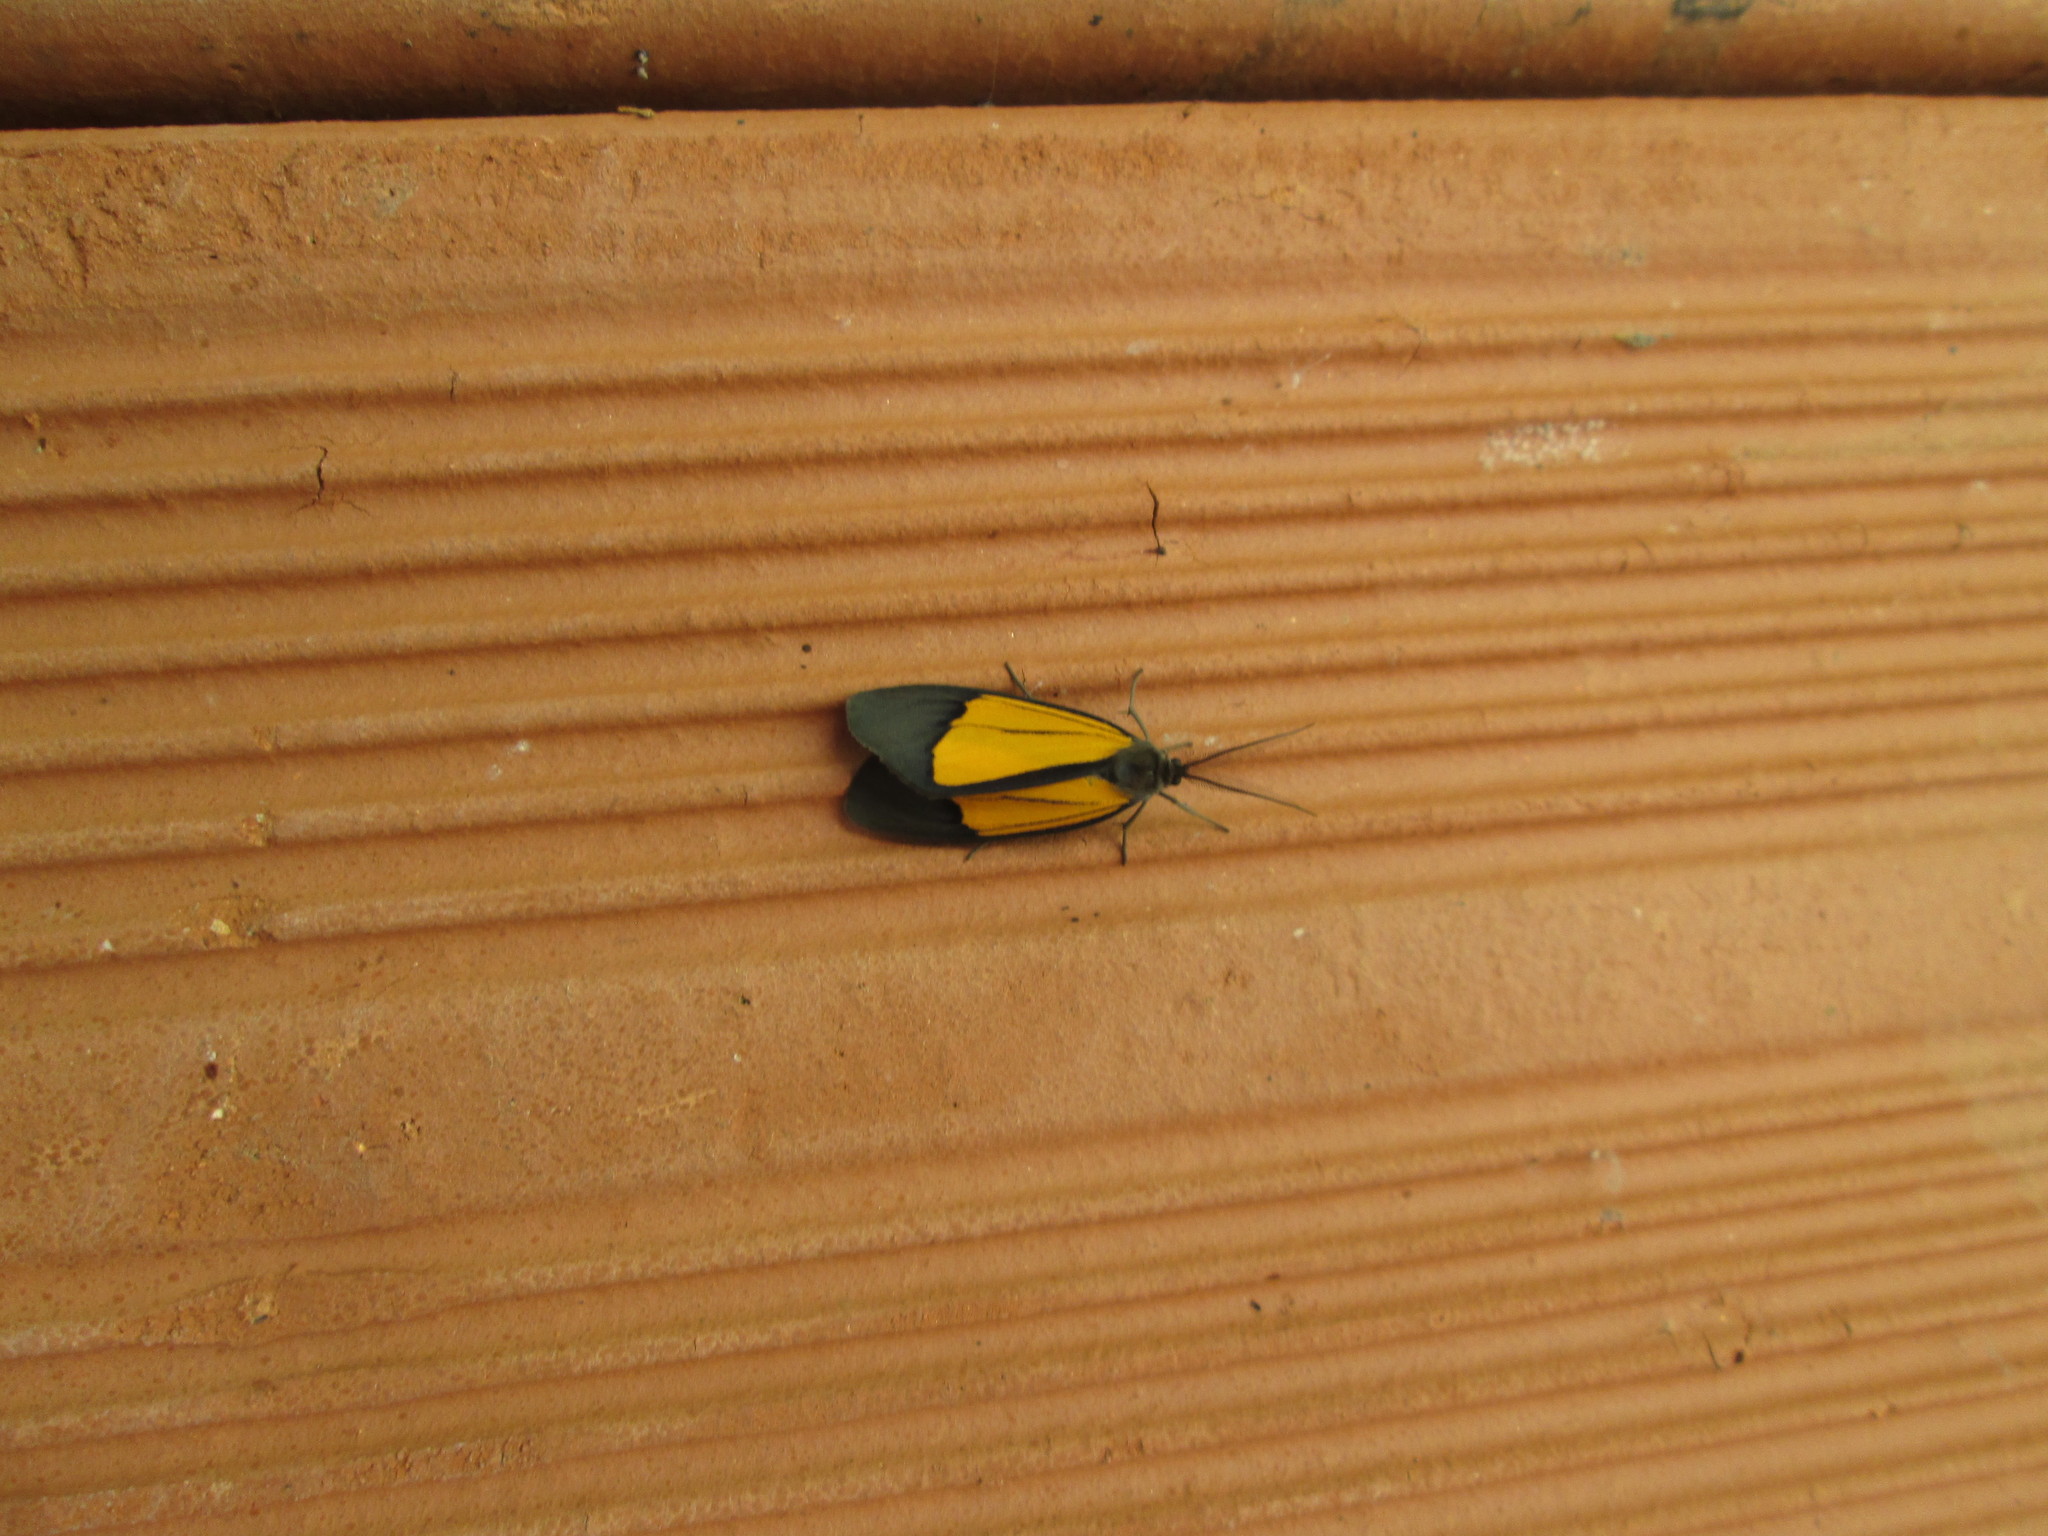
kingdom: Animalia
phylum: Arthropoda
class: Insecta
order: Lepidoptera
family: Notodontidae
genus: Scea
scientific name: Scea servula
